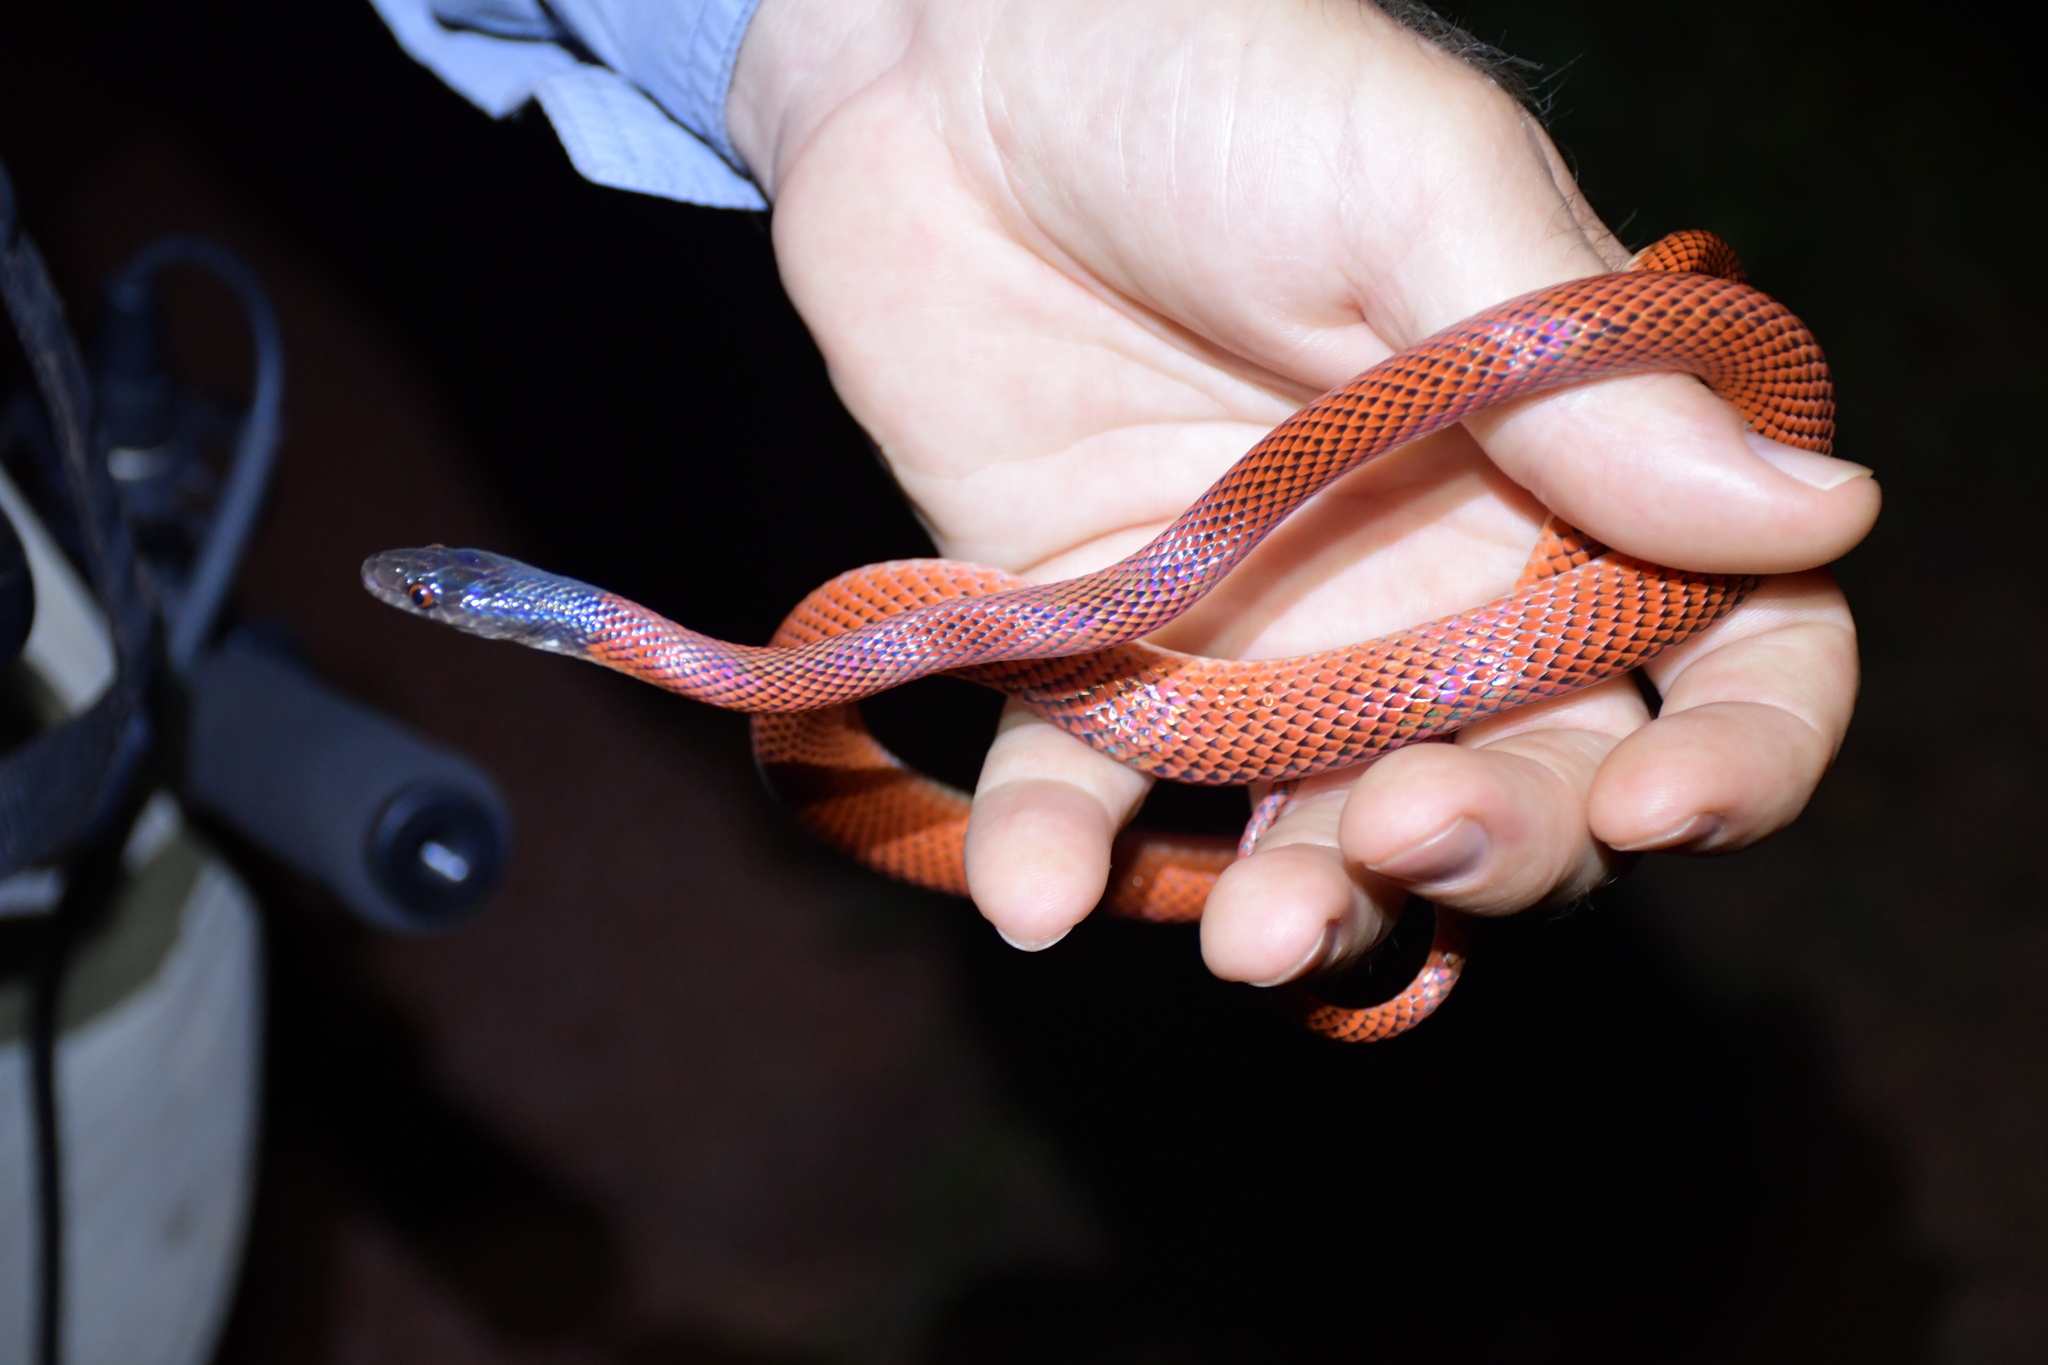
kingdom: Animalia
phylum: Chordata
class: Squamata
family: Colubridae
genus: Oxyrhopus
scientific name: Oxyrhopus melanogenys
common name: Tschudi's false coral snake
